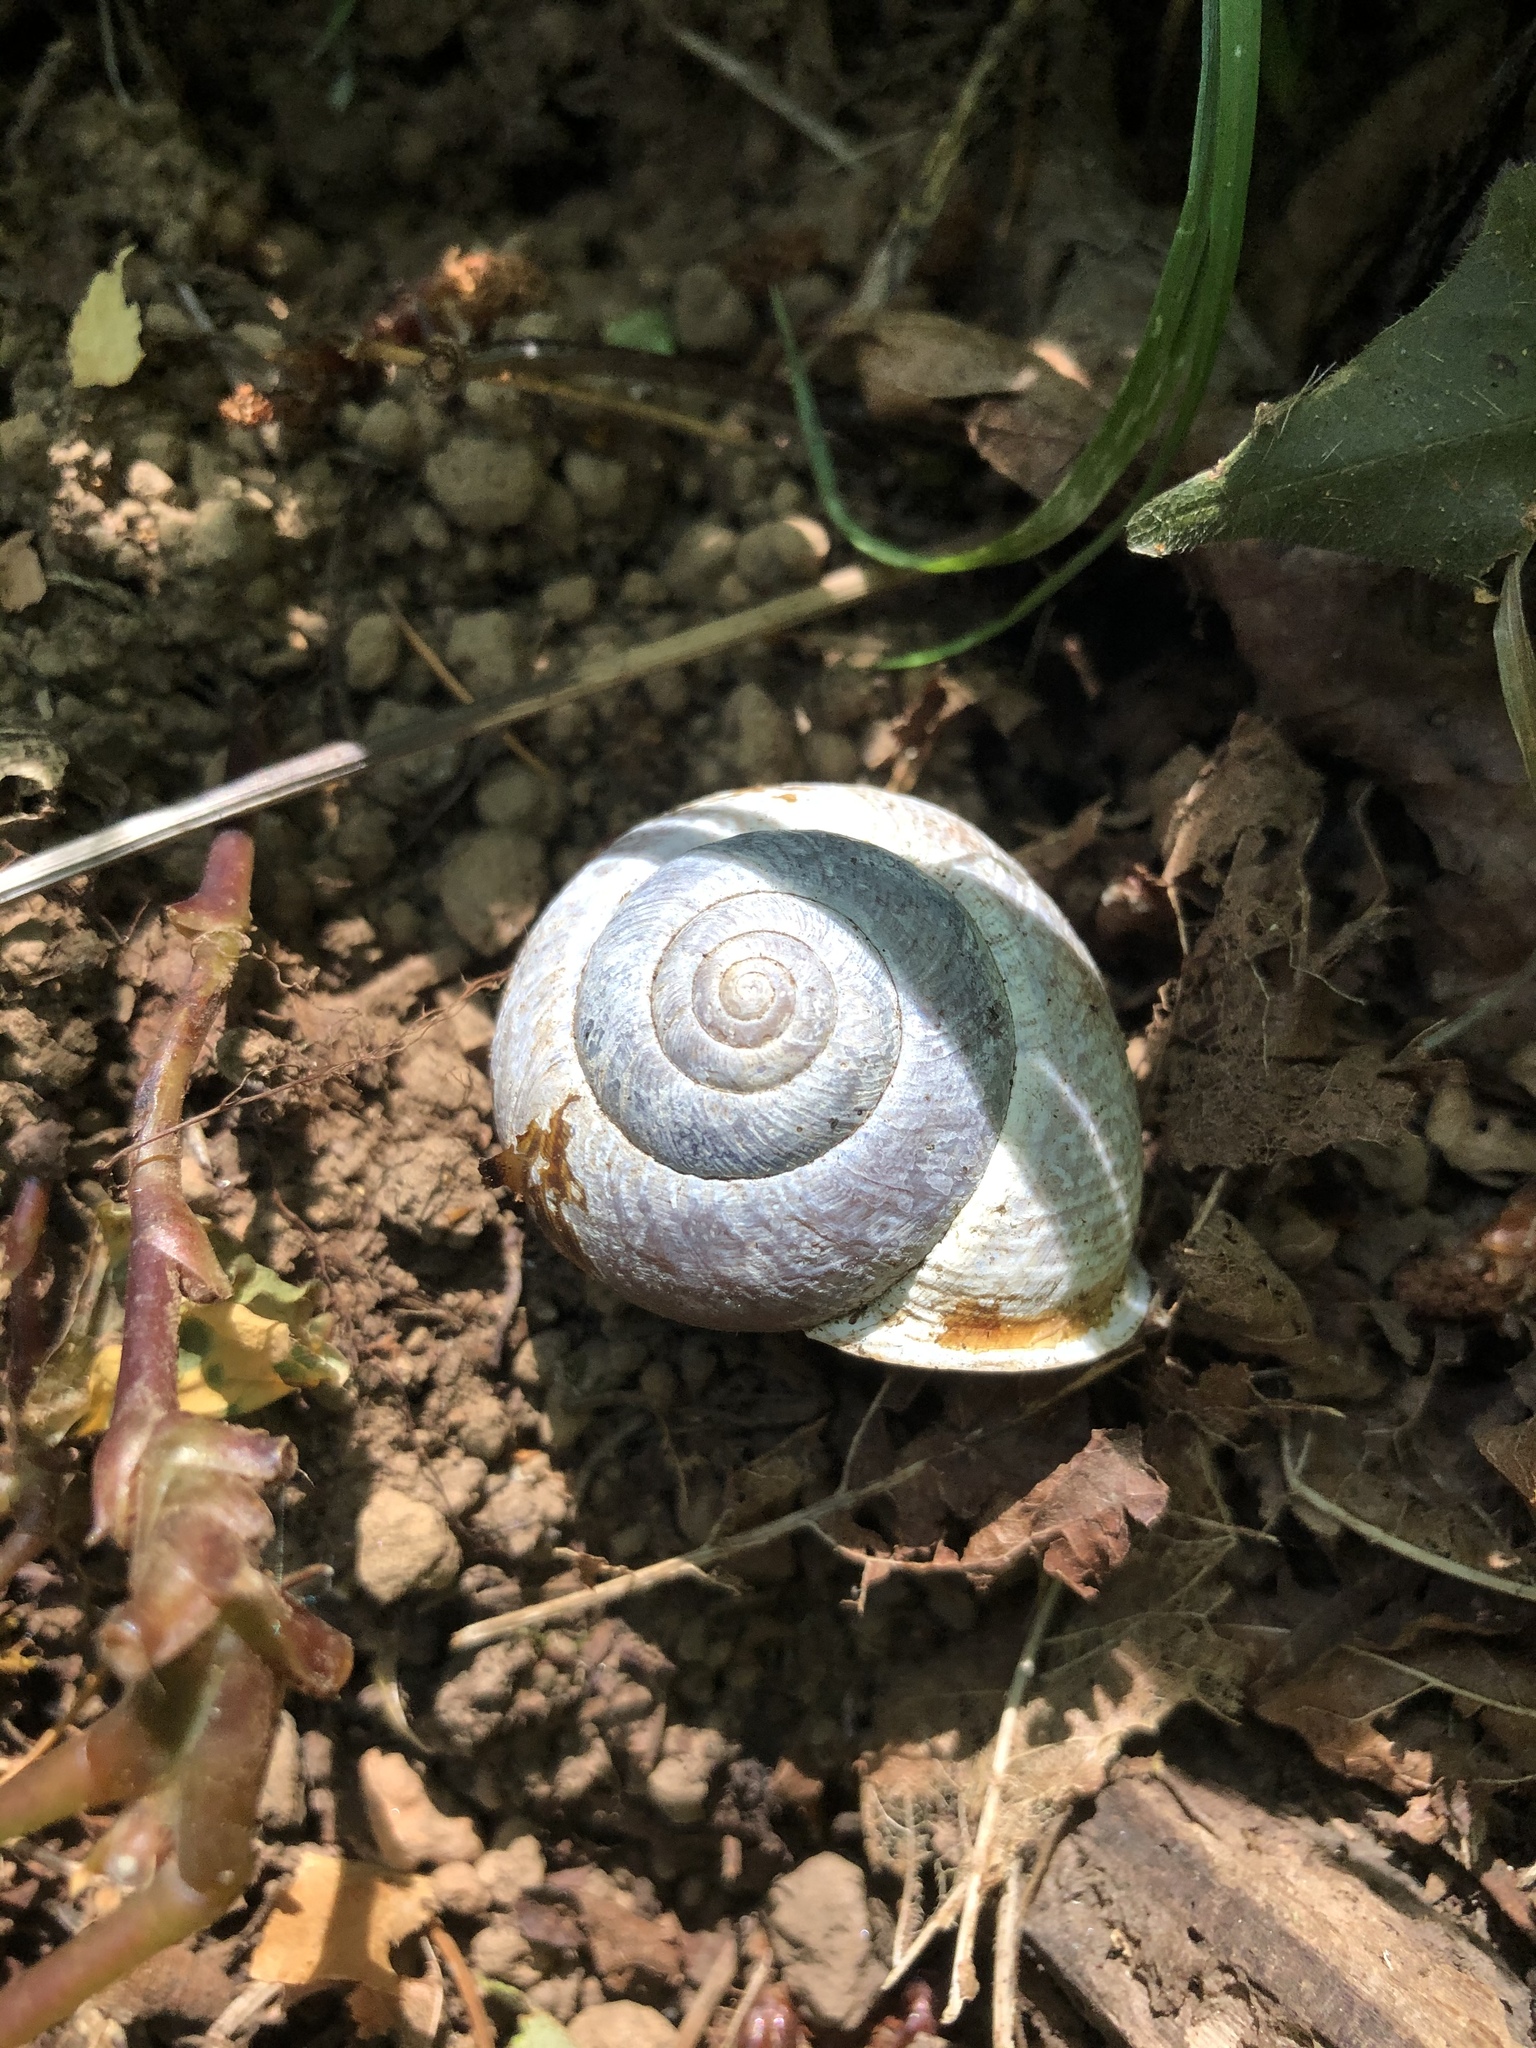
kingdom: Animalia
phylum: Mollusca
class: Gastropoda
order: Stylommatophora
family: Polygyridae
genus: Allogona
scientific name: Allogona townsendiana
